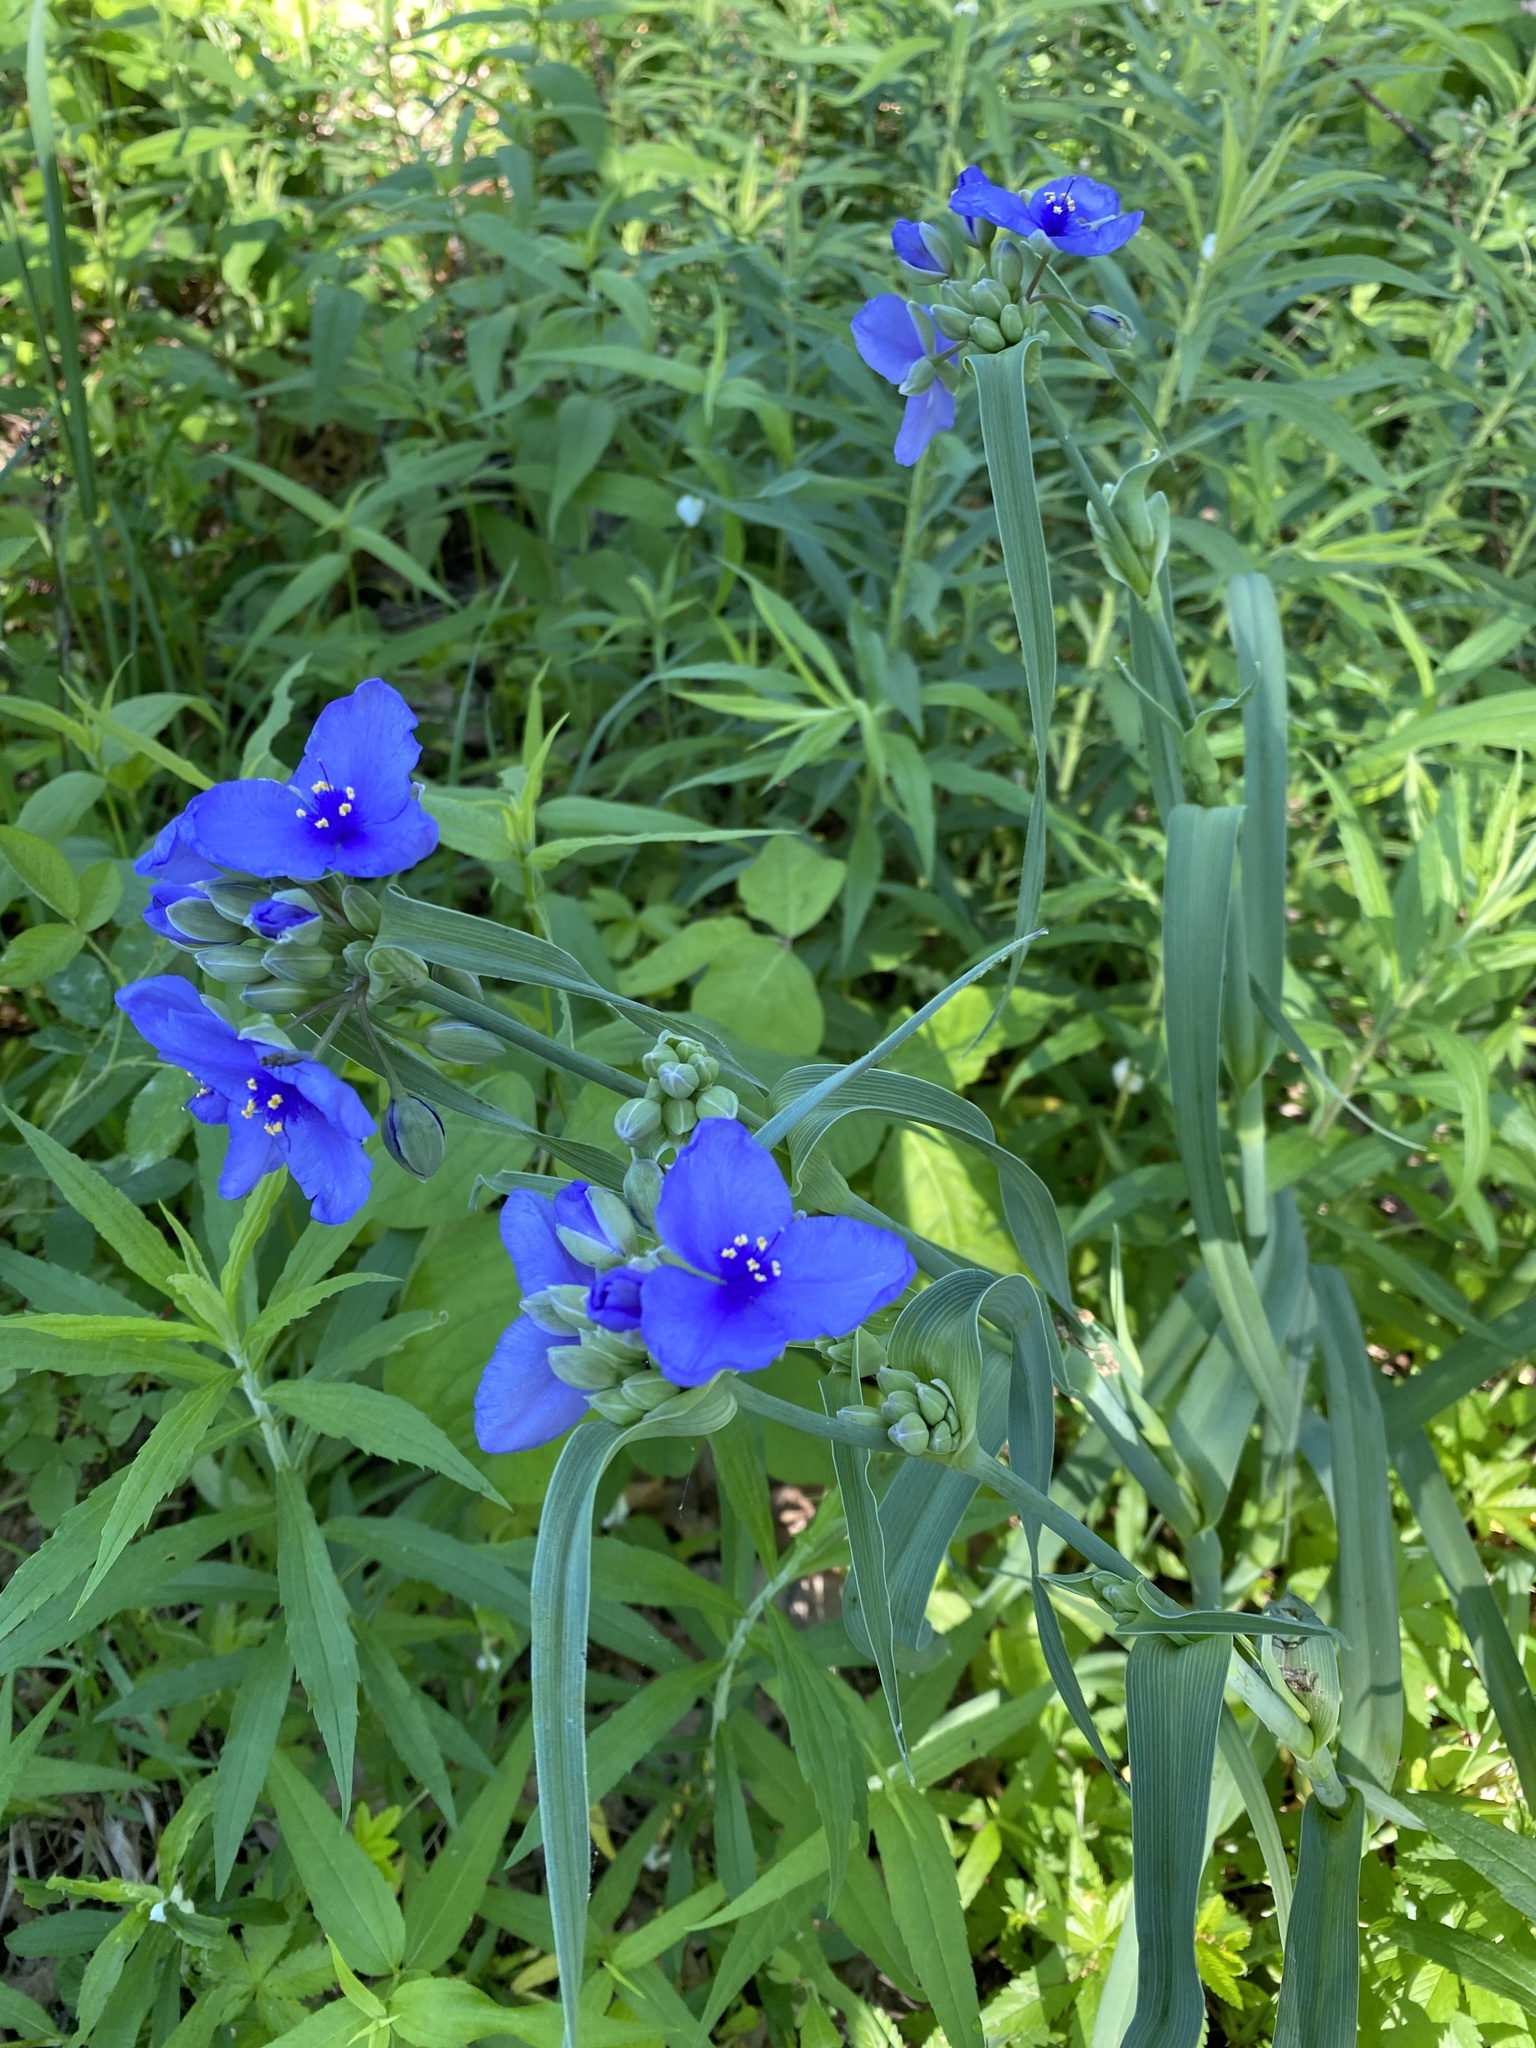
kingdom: Plantae
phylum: Tracheophyta
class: Liliopsida
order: Commelinales
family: Commelinaceae
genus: Tradescantia
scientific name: Tradescantia ohiensis
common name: Ohio spiderwort
